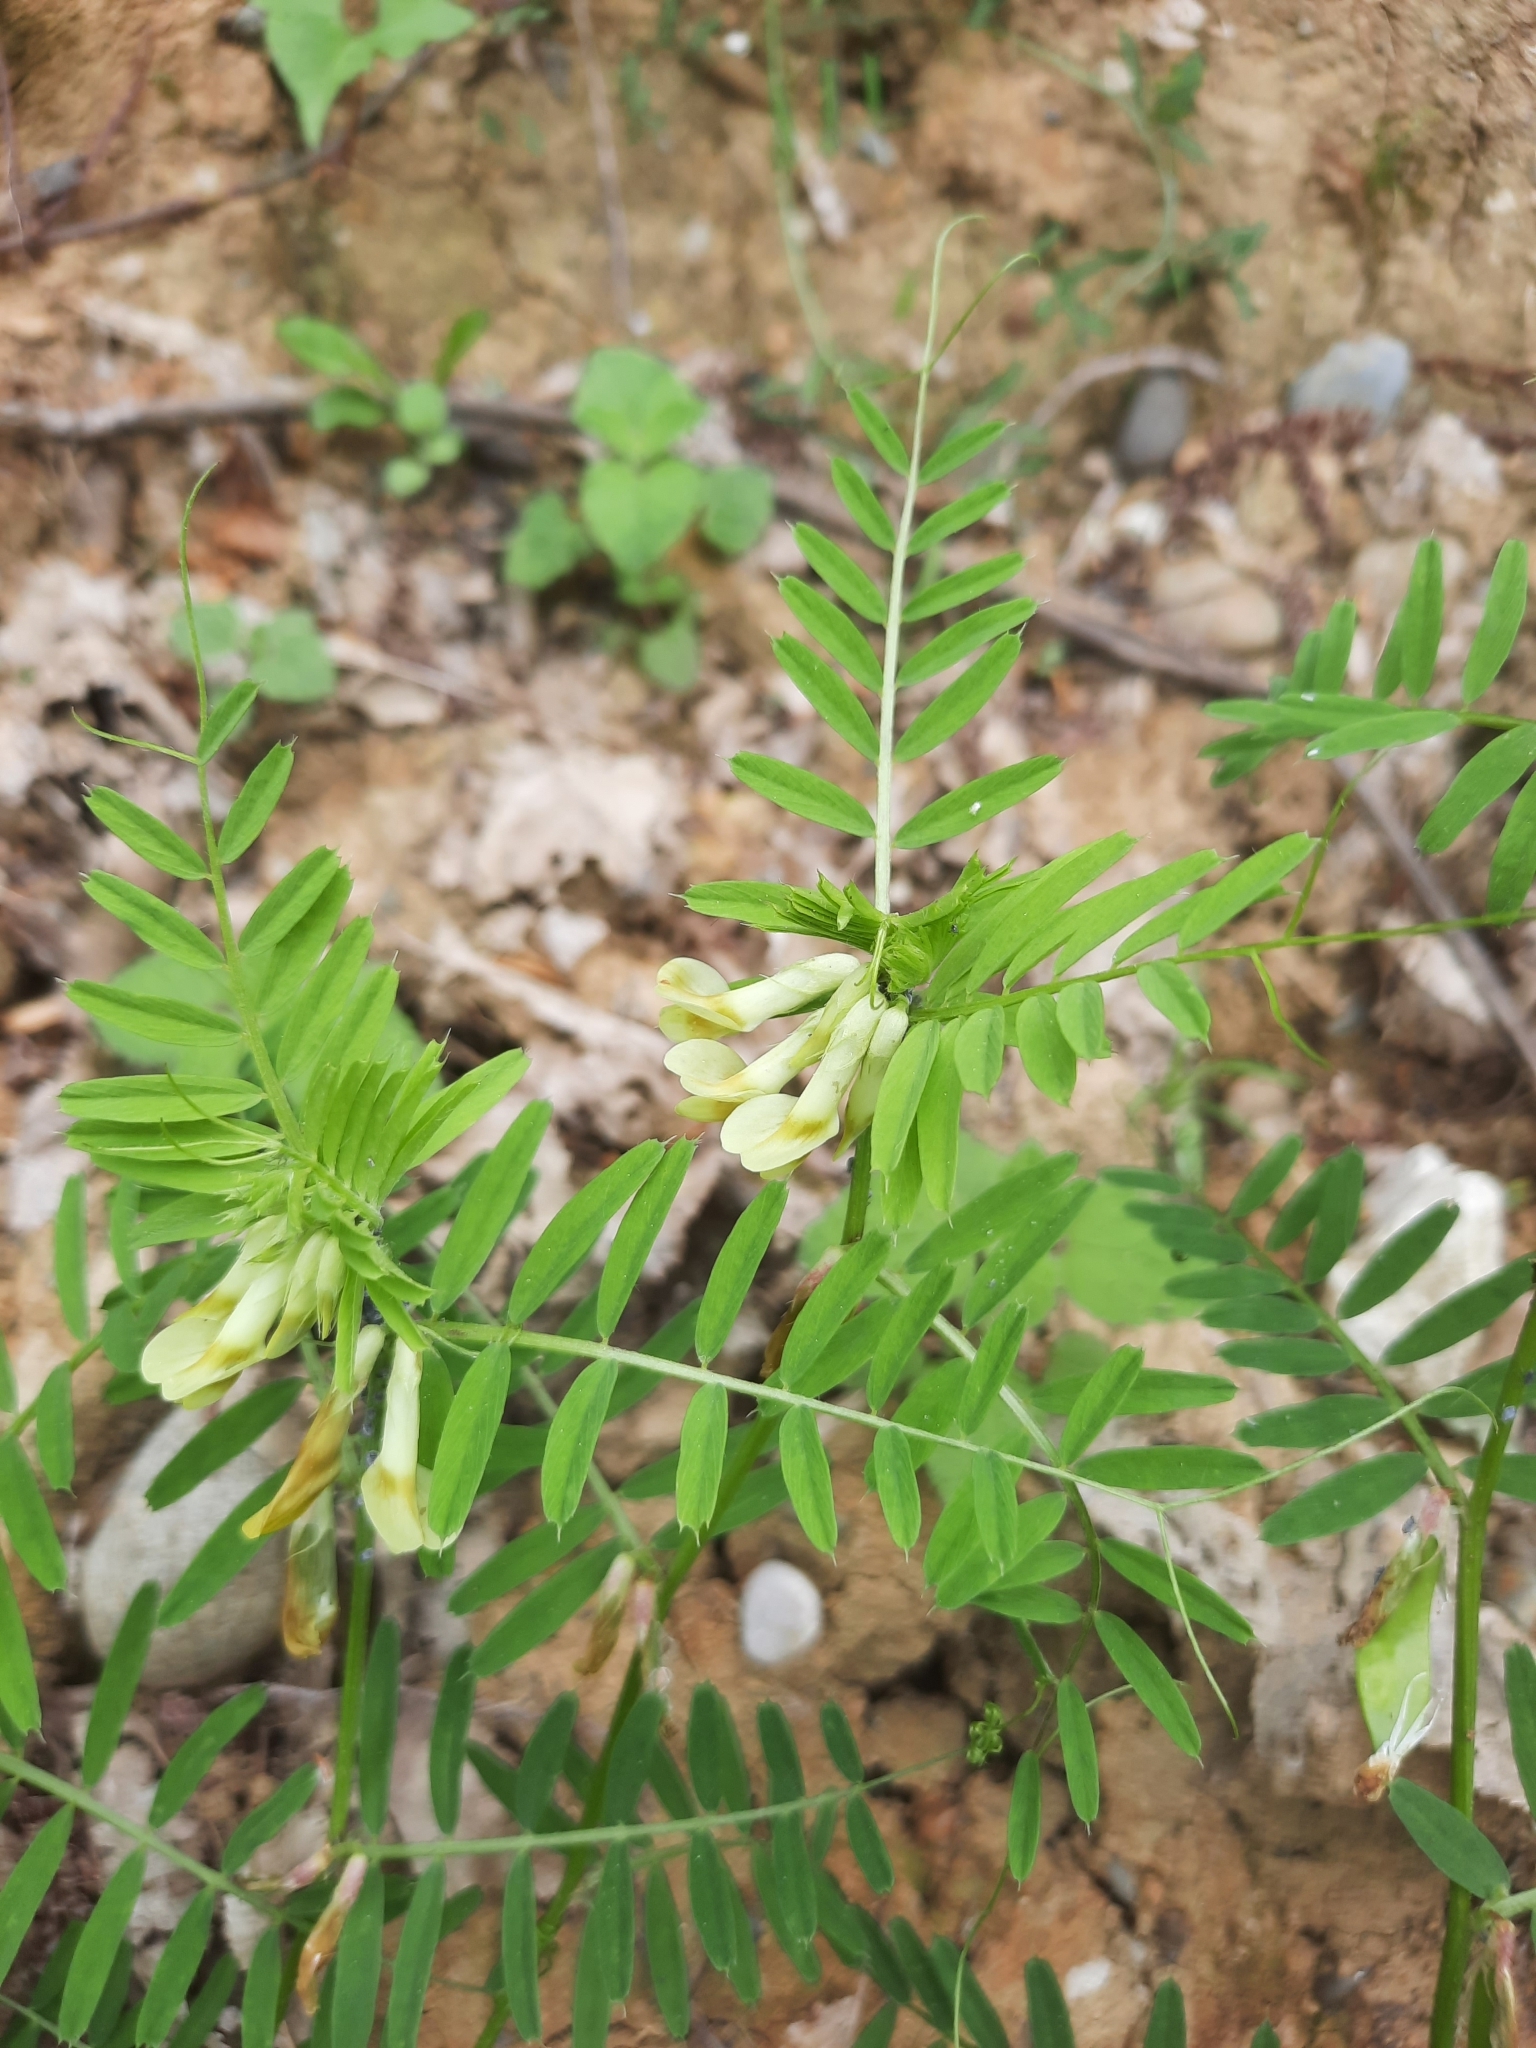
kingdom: Plantae
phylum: Tracheophyta
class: Magnoliopsida
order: Fabales
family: Fabaceae
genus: Vicia
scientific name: Vicia ciliatula
